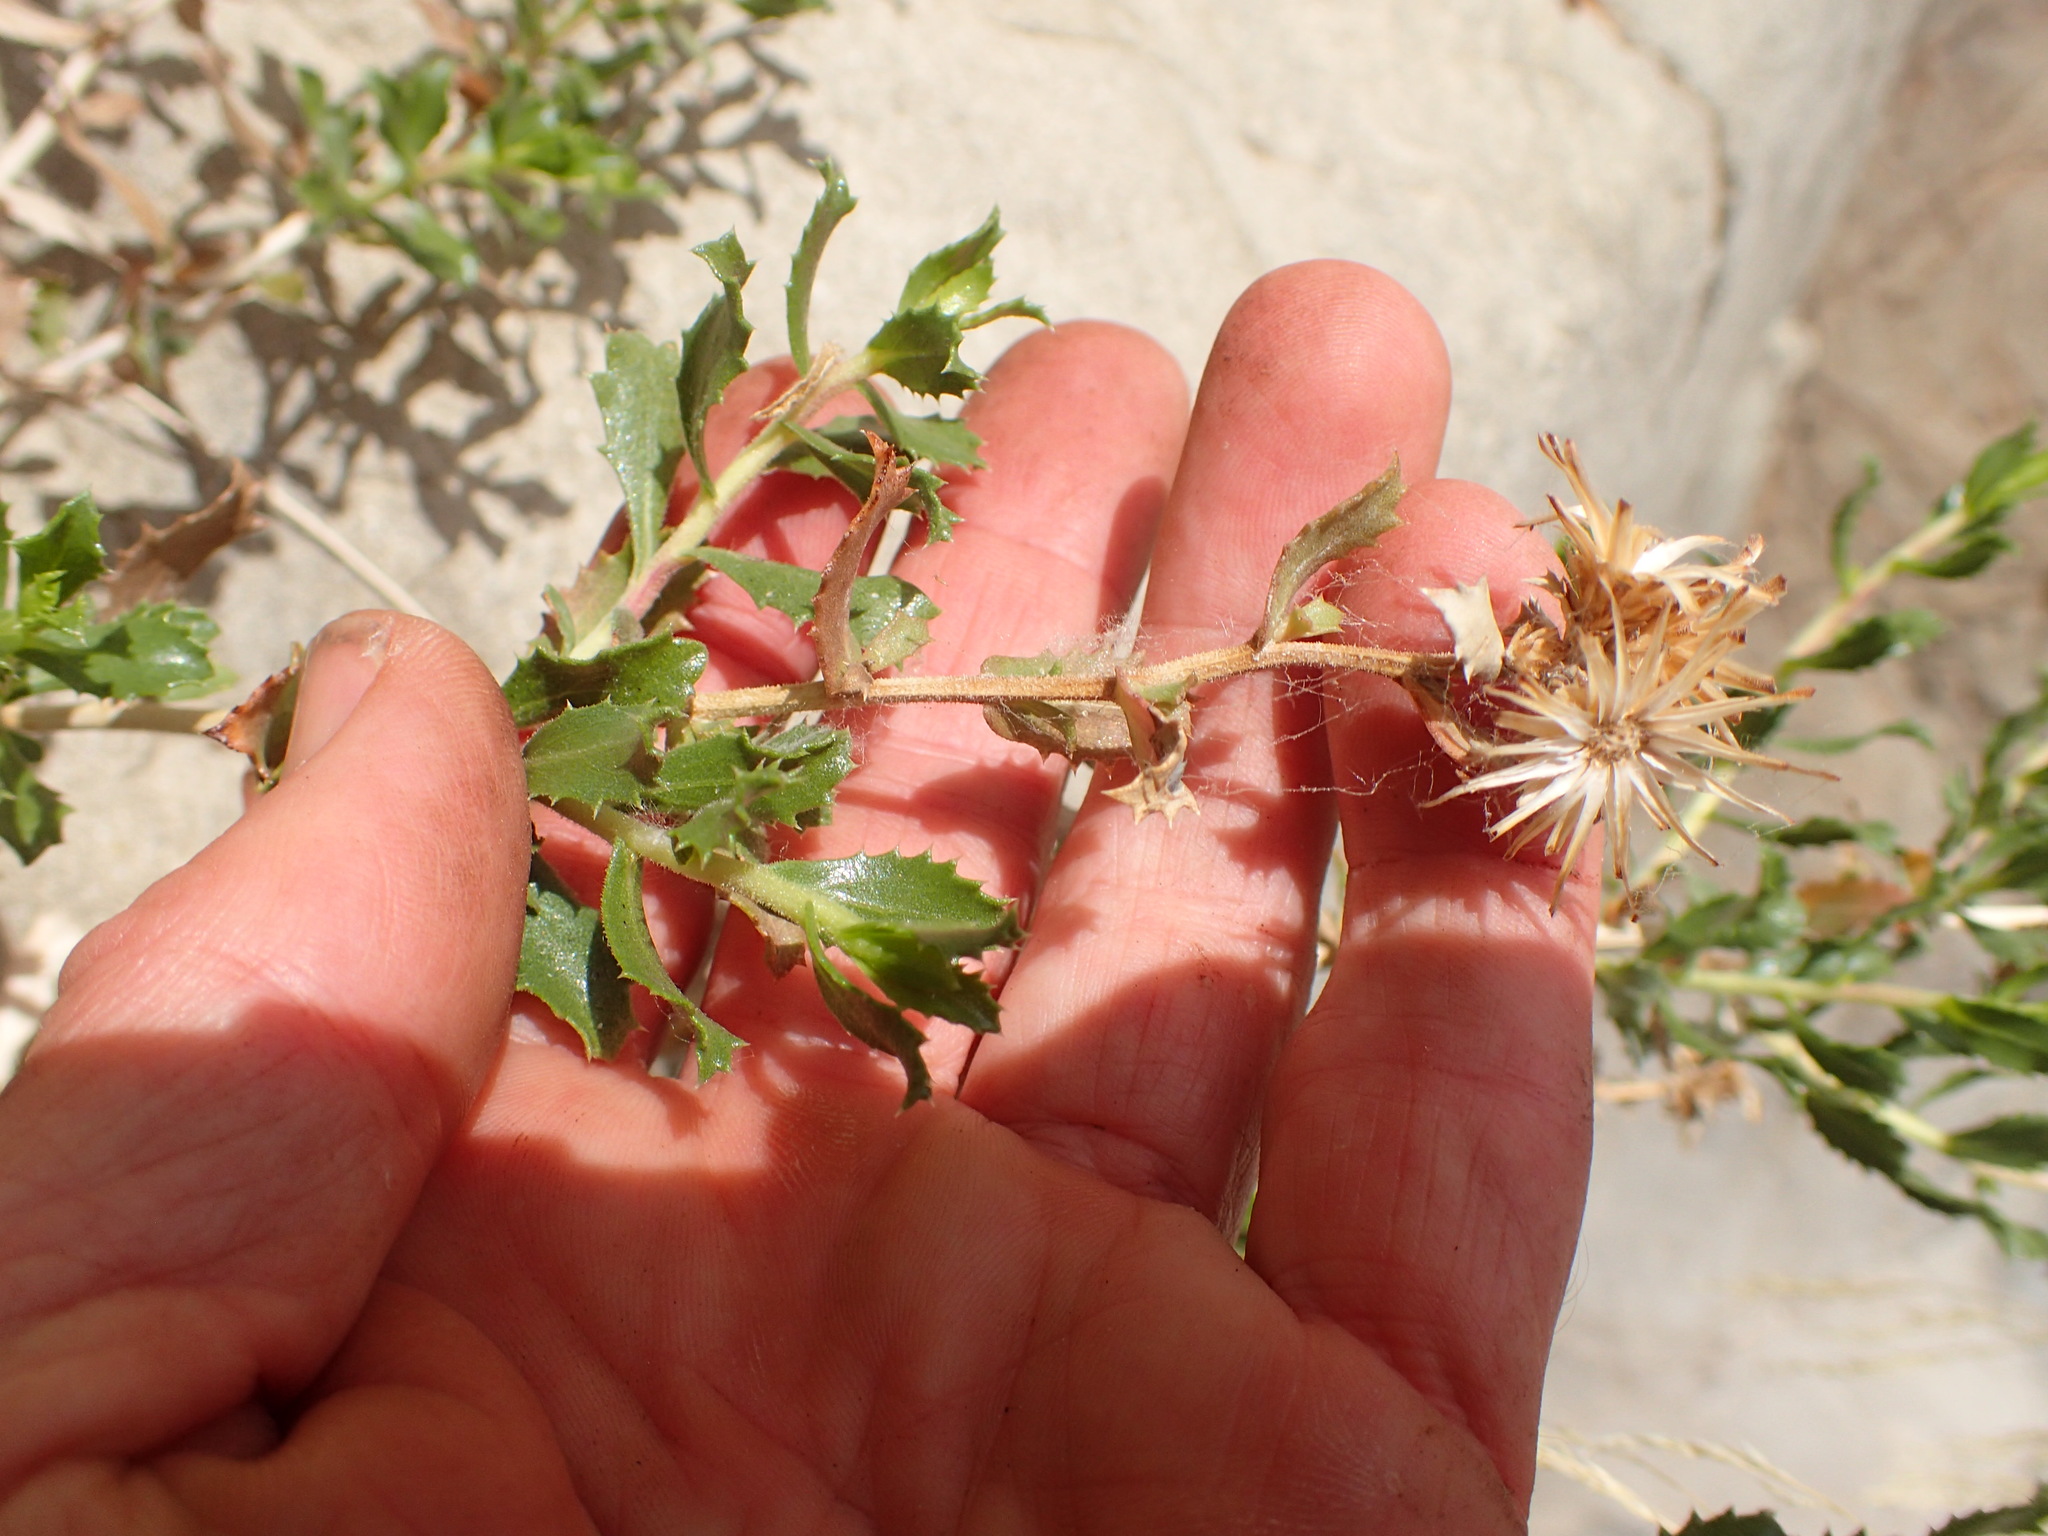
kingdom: Plantae
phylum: Tracheophyta
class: Magnoliopsida
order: Asterales
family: Asteraceae
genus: Hazardia
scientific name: Hazardia squarrosa
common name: Saw-tooth goldenbush
